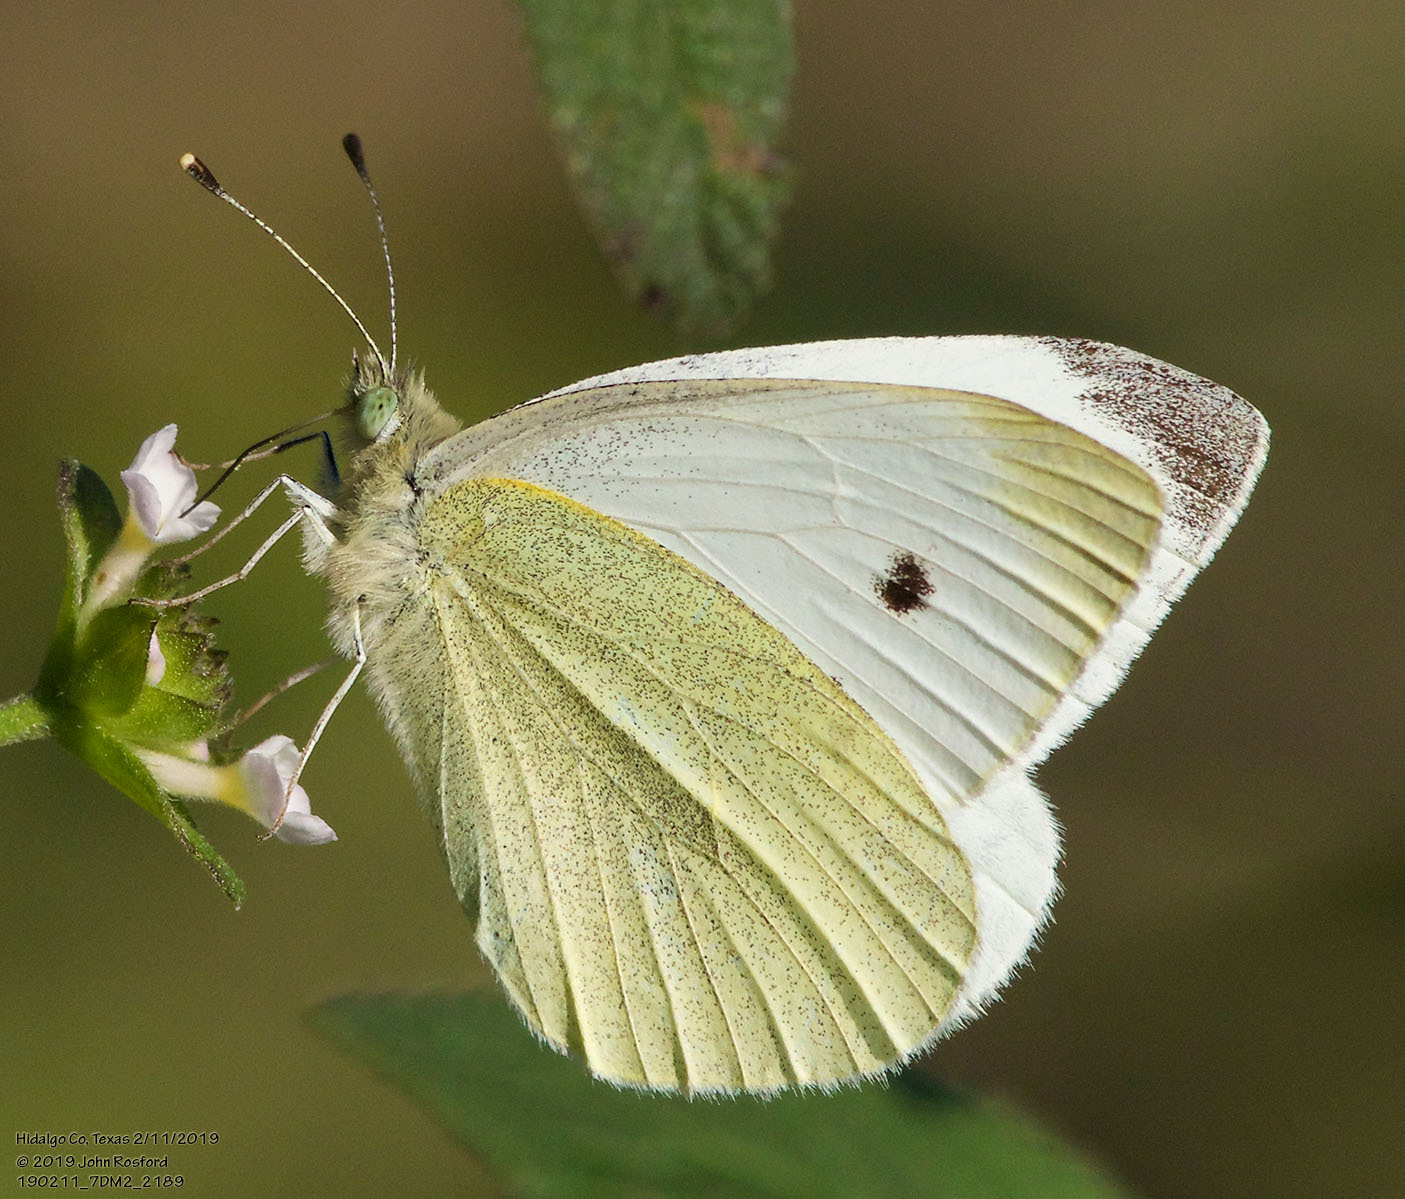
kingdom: Animalia
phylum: Arthropoda
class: Insecta
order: Lepidoptera
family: Pieridae
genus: Pieris
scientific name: Pieris rapae
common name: Small white
